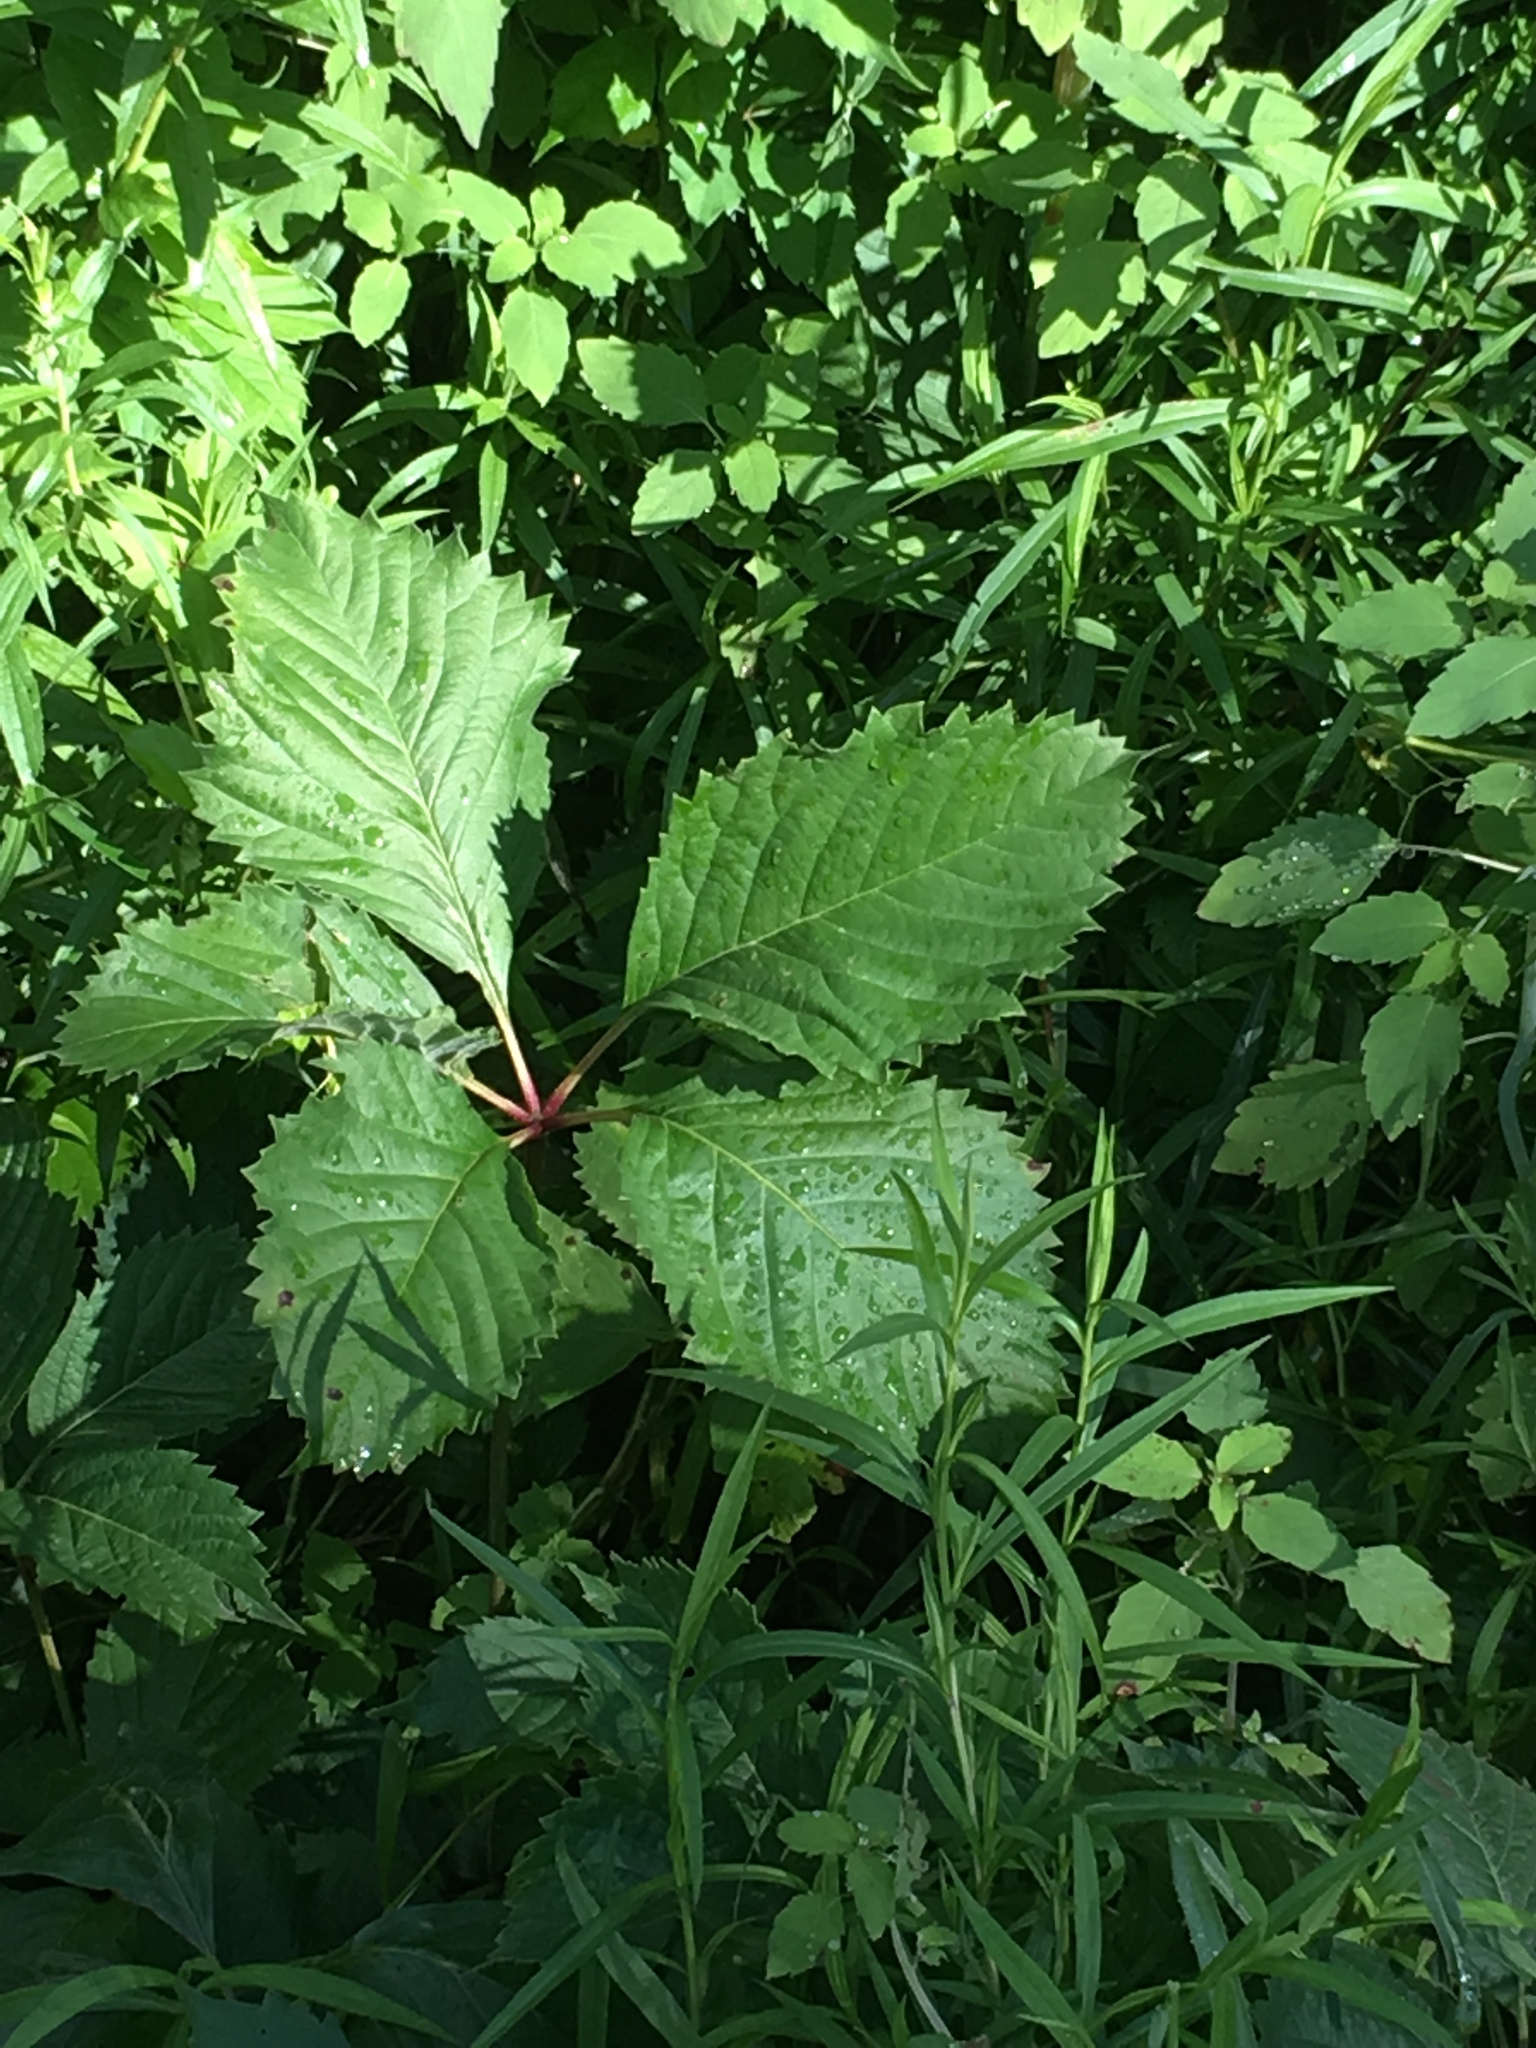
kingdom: Plantae
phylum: Tracheophyta
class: Magnoliopsida
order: Vitales
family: Vitaceae
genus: Parthenocissus
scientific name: Parthenocissus inserta
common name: False virginia-creeper
